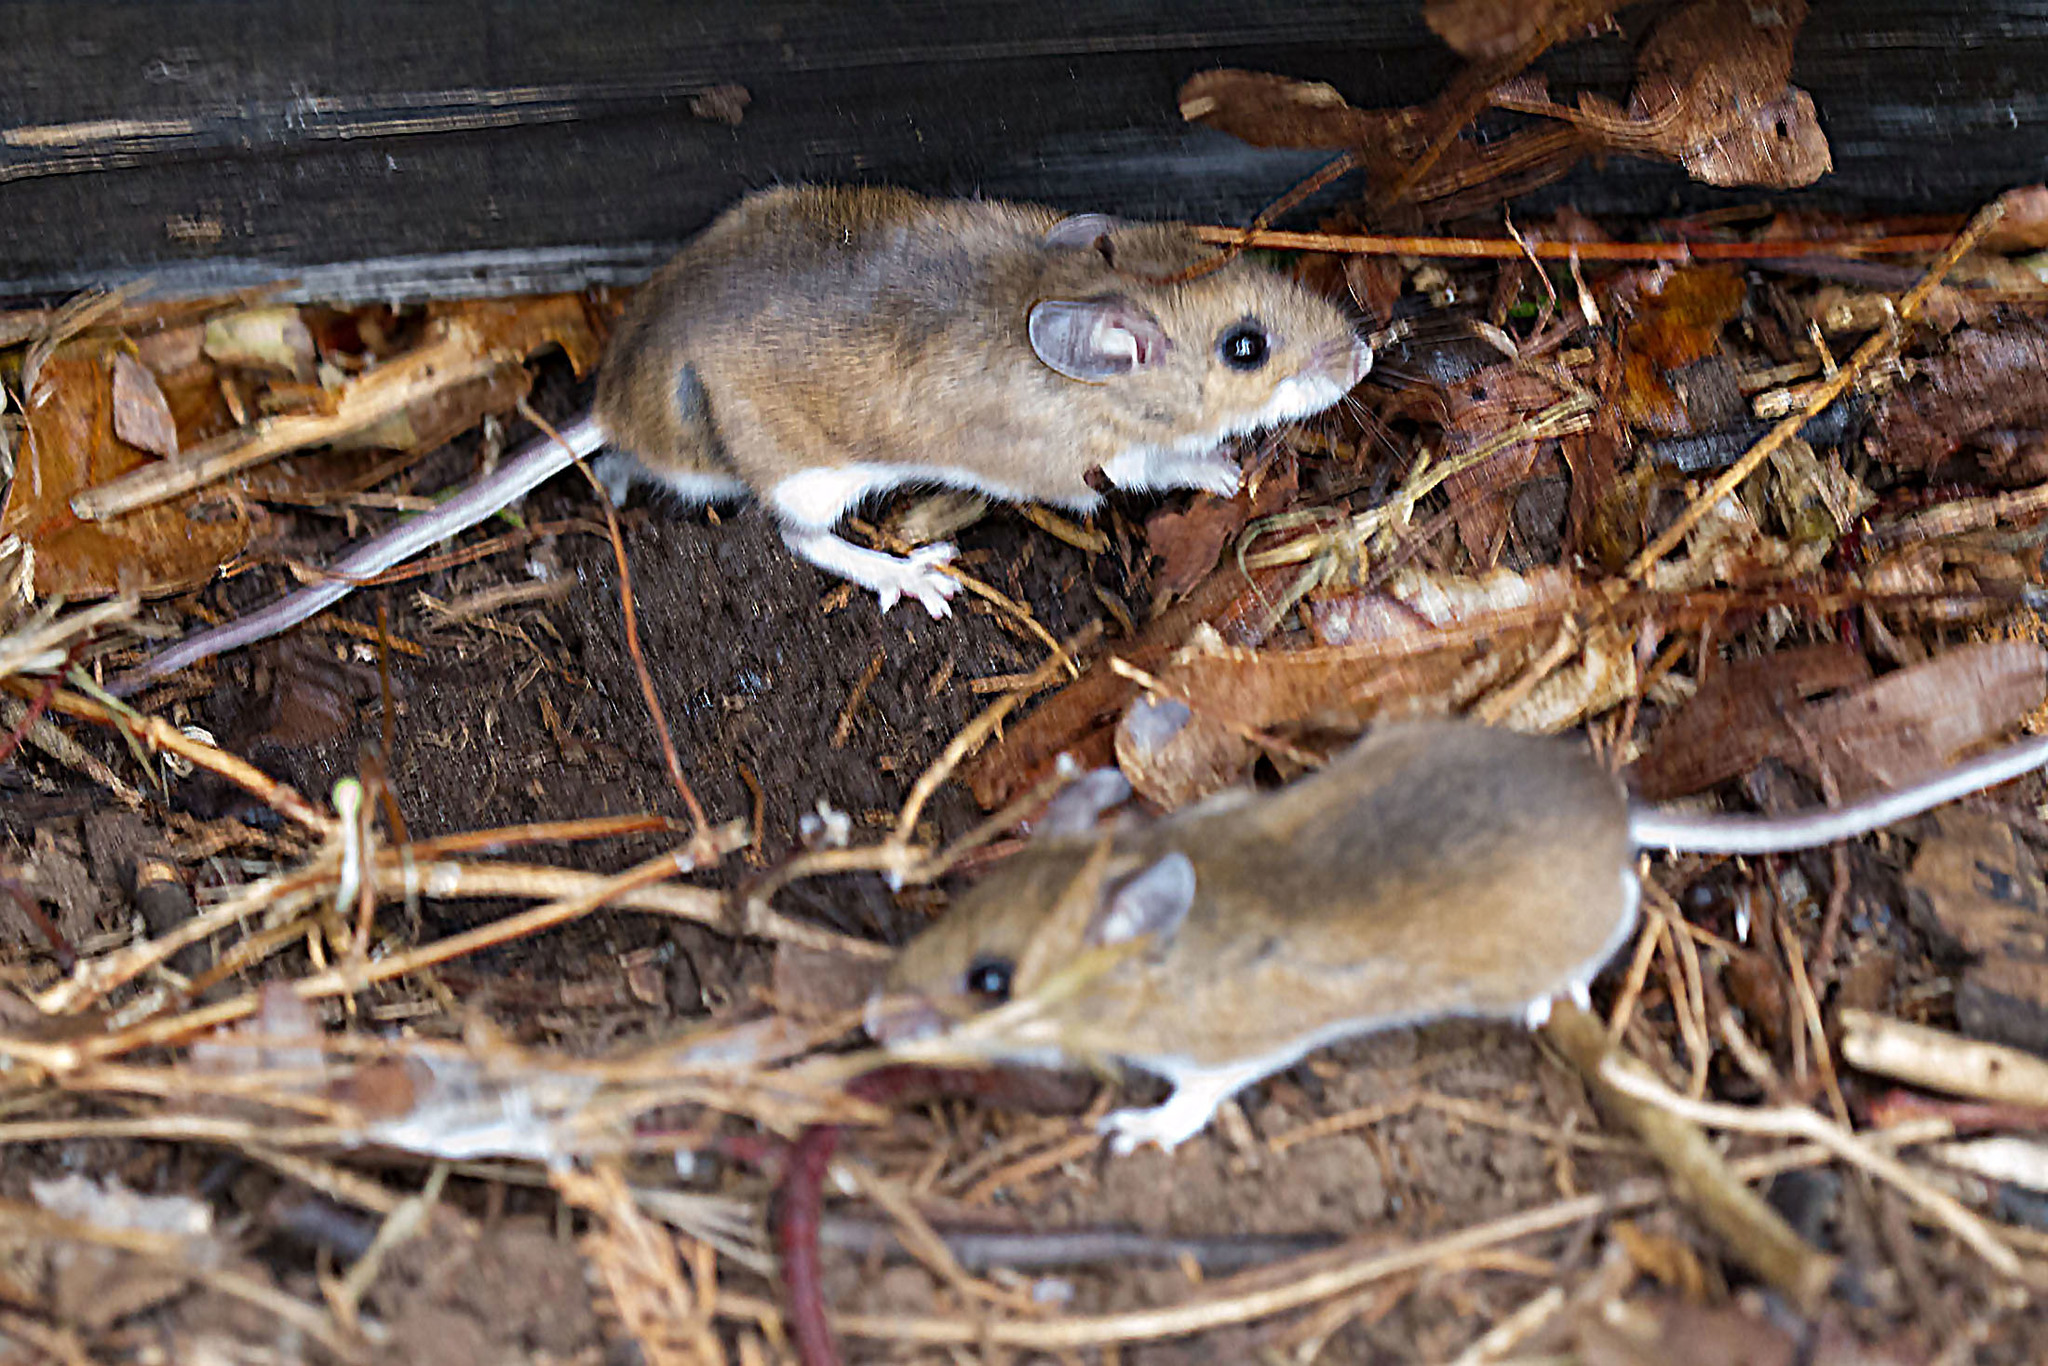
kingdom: Animalia
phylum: Chordata
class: Mammalia
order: Rodentia
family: Cricetidae
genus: Peromyscus
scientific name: Peromyscus leucopus
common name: White-footed deermouse
